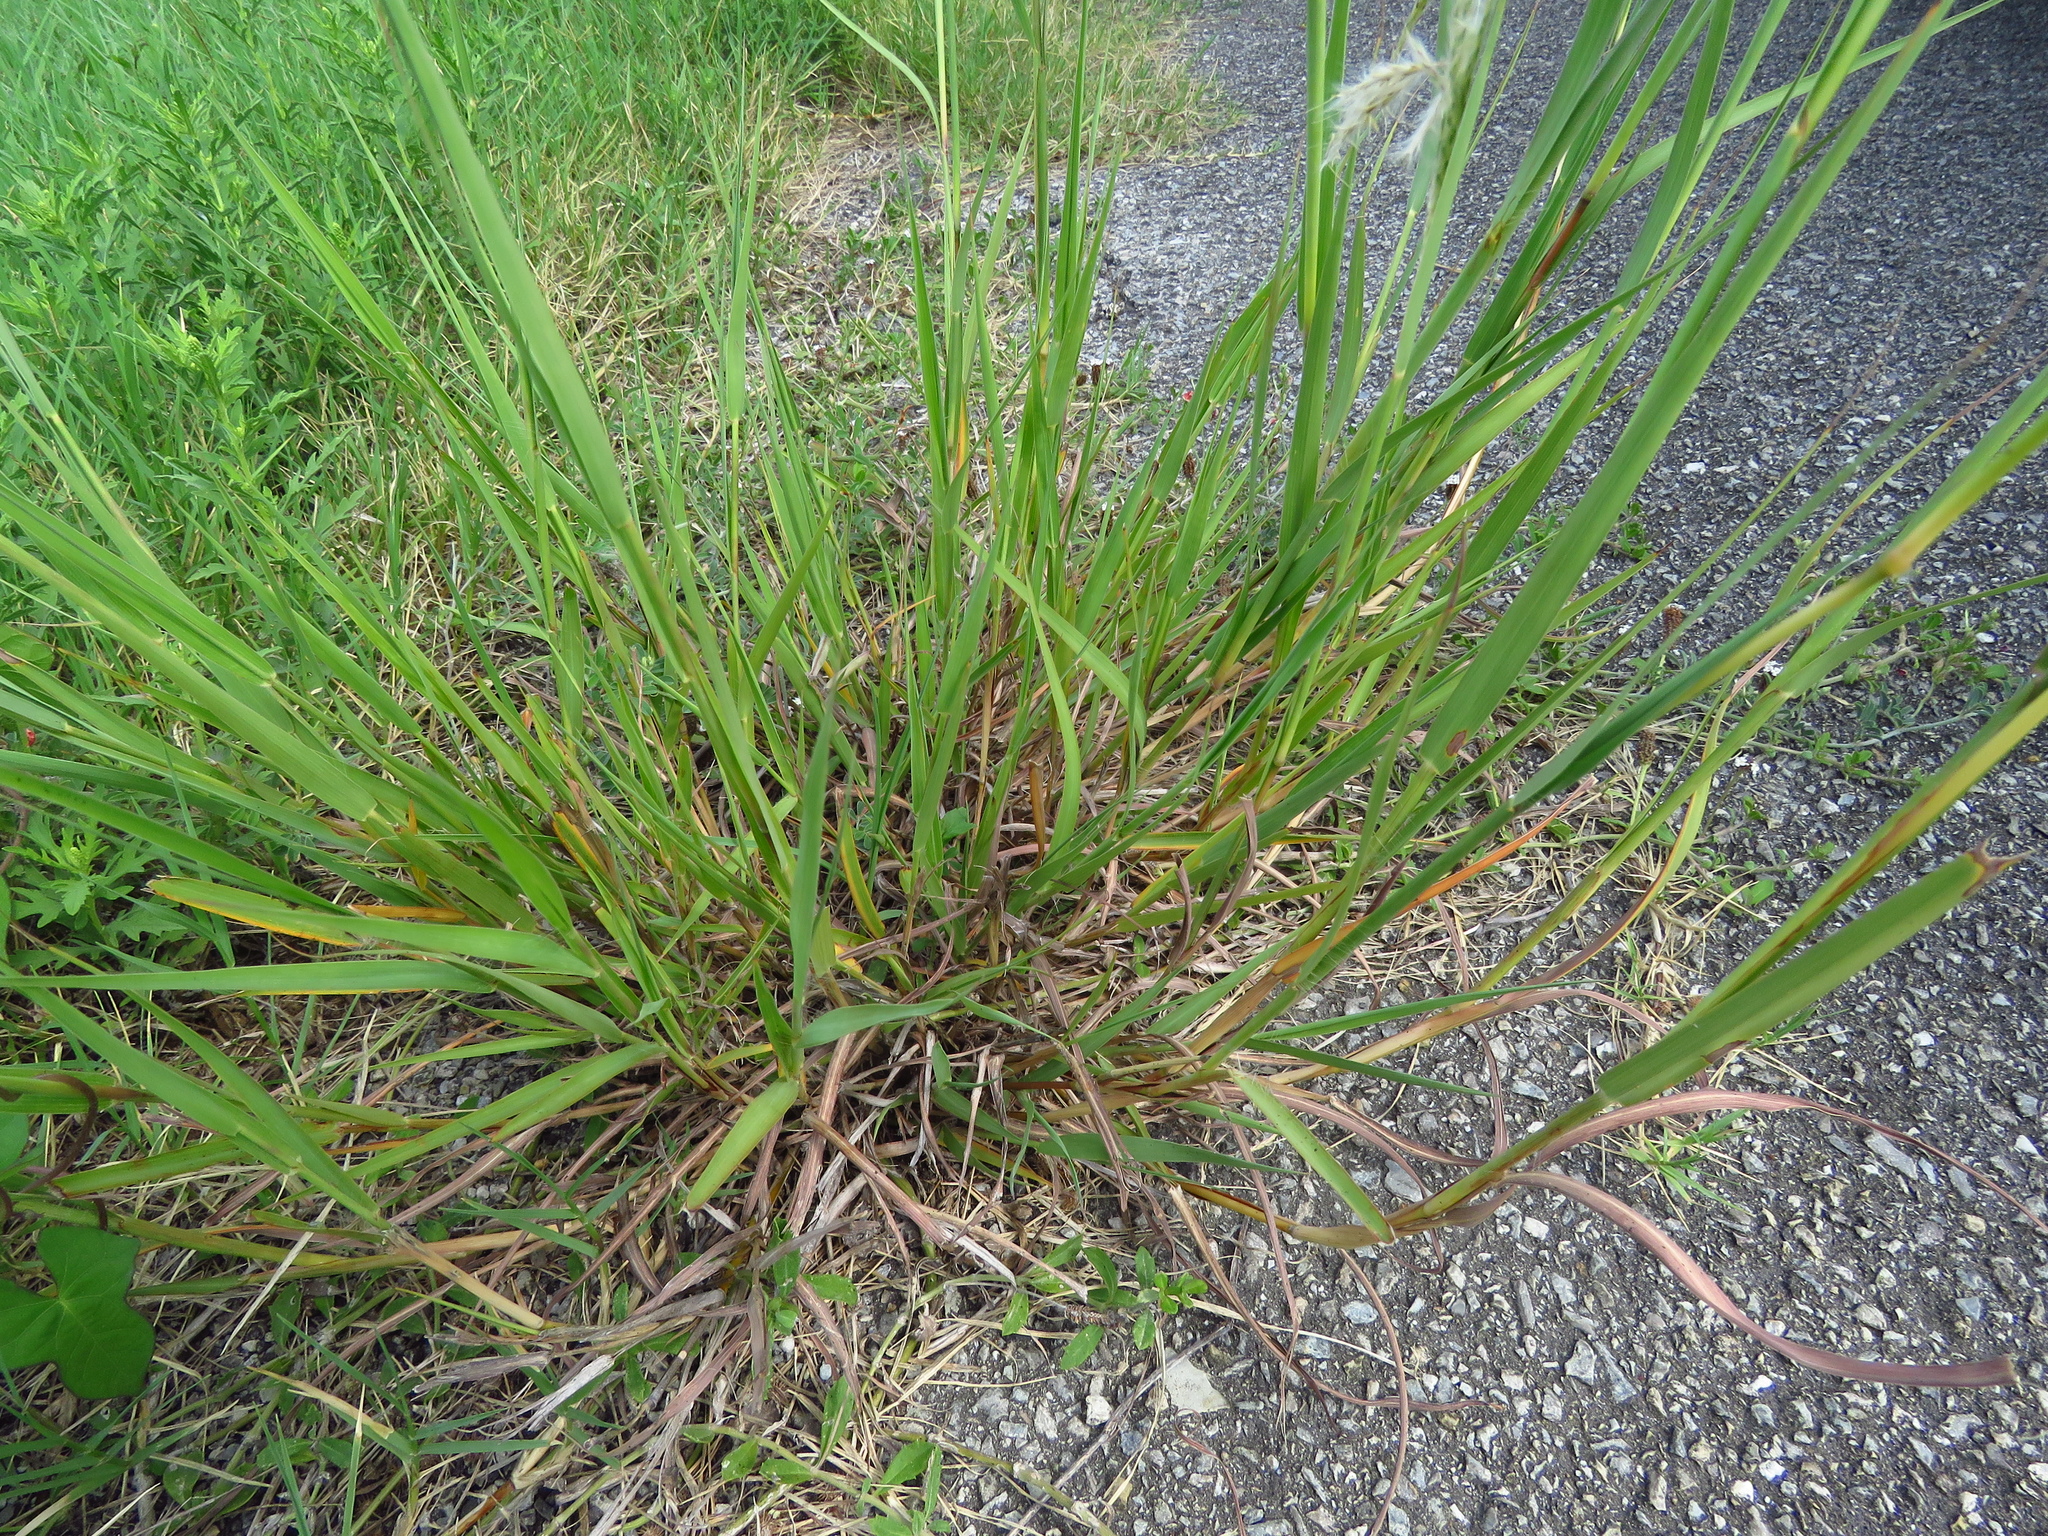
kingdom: Plantae
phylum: Tracheophyta
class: Liliopsida
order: Poales
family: Poaceae
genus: Bothriochloa
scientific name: Bothriochloa torreyana
